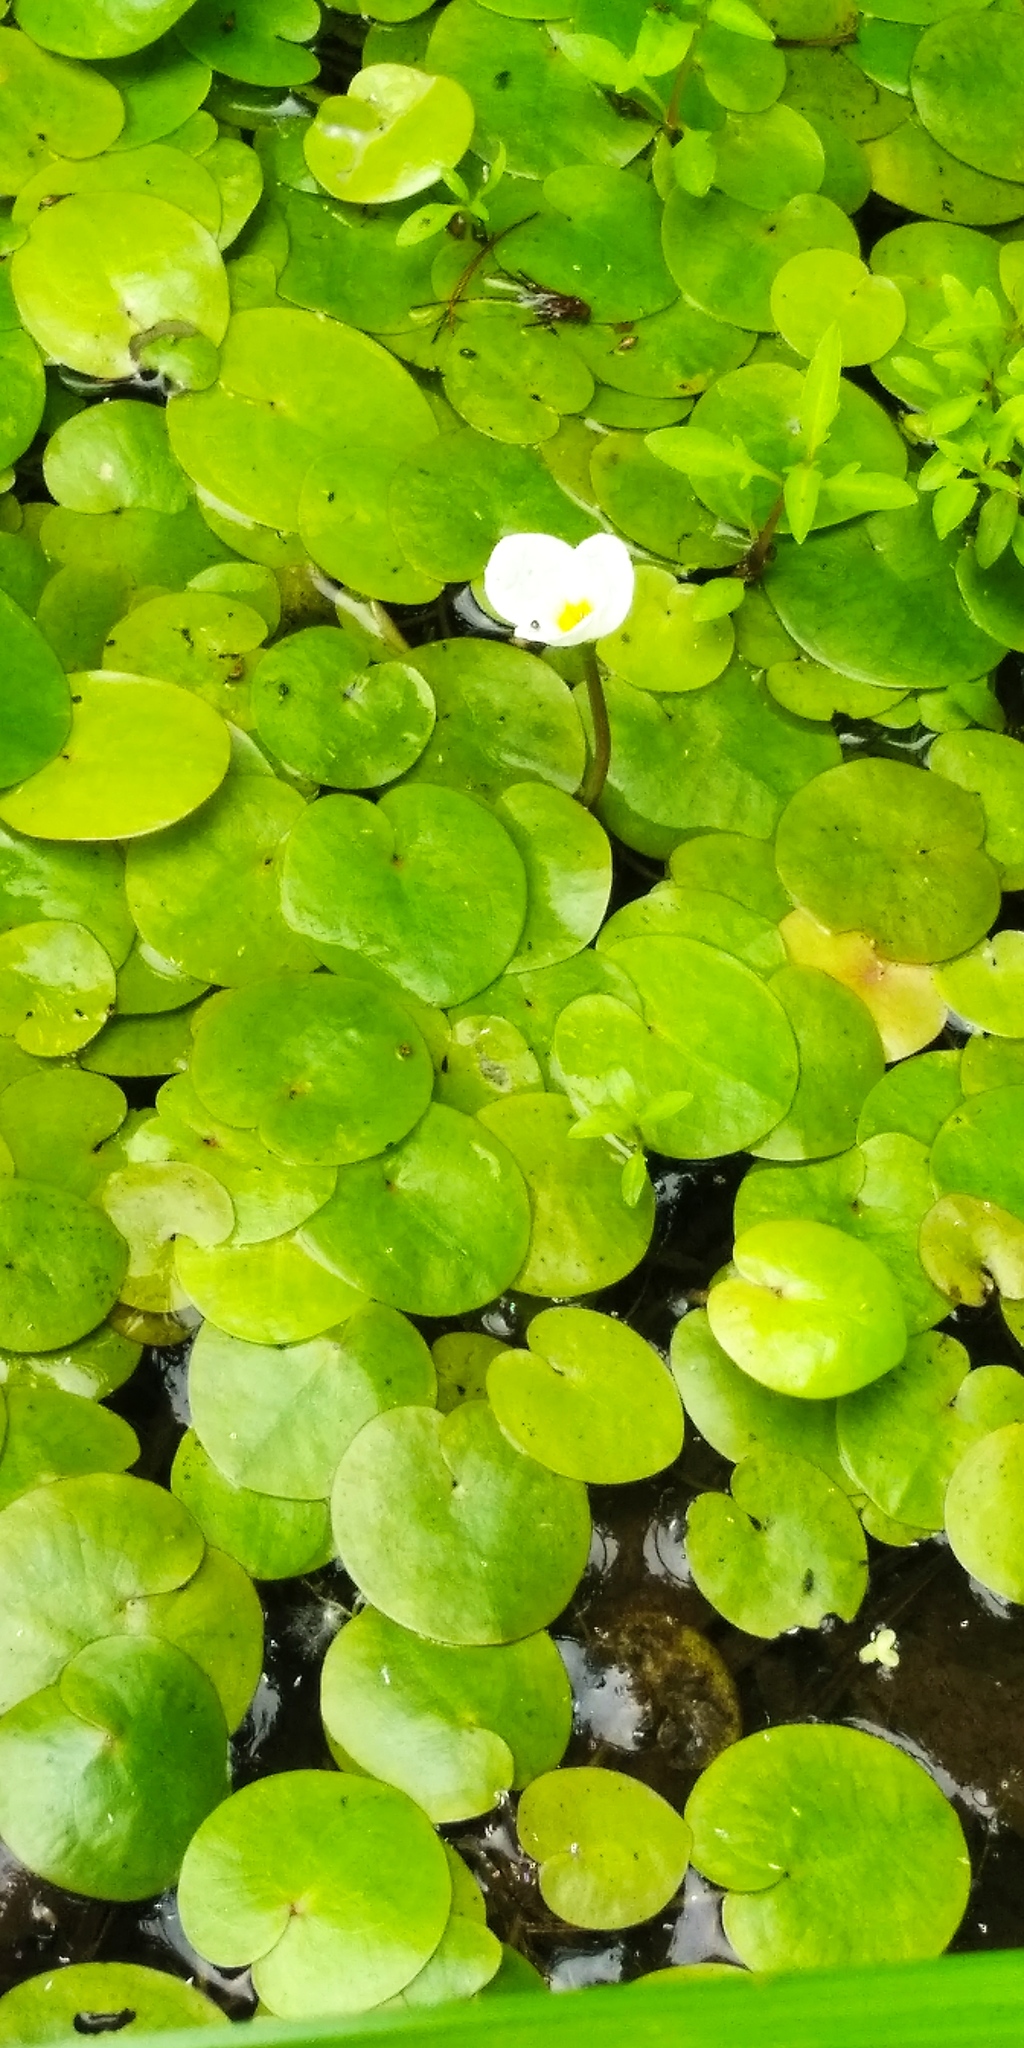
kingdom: Plantae
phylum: Tracheophyta
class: Liliopsida
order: Alismatales
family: Hydrocharitaceae
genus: Hydrocharis
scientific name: Hydrocharis morsus-ranae
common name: Frogbit
